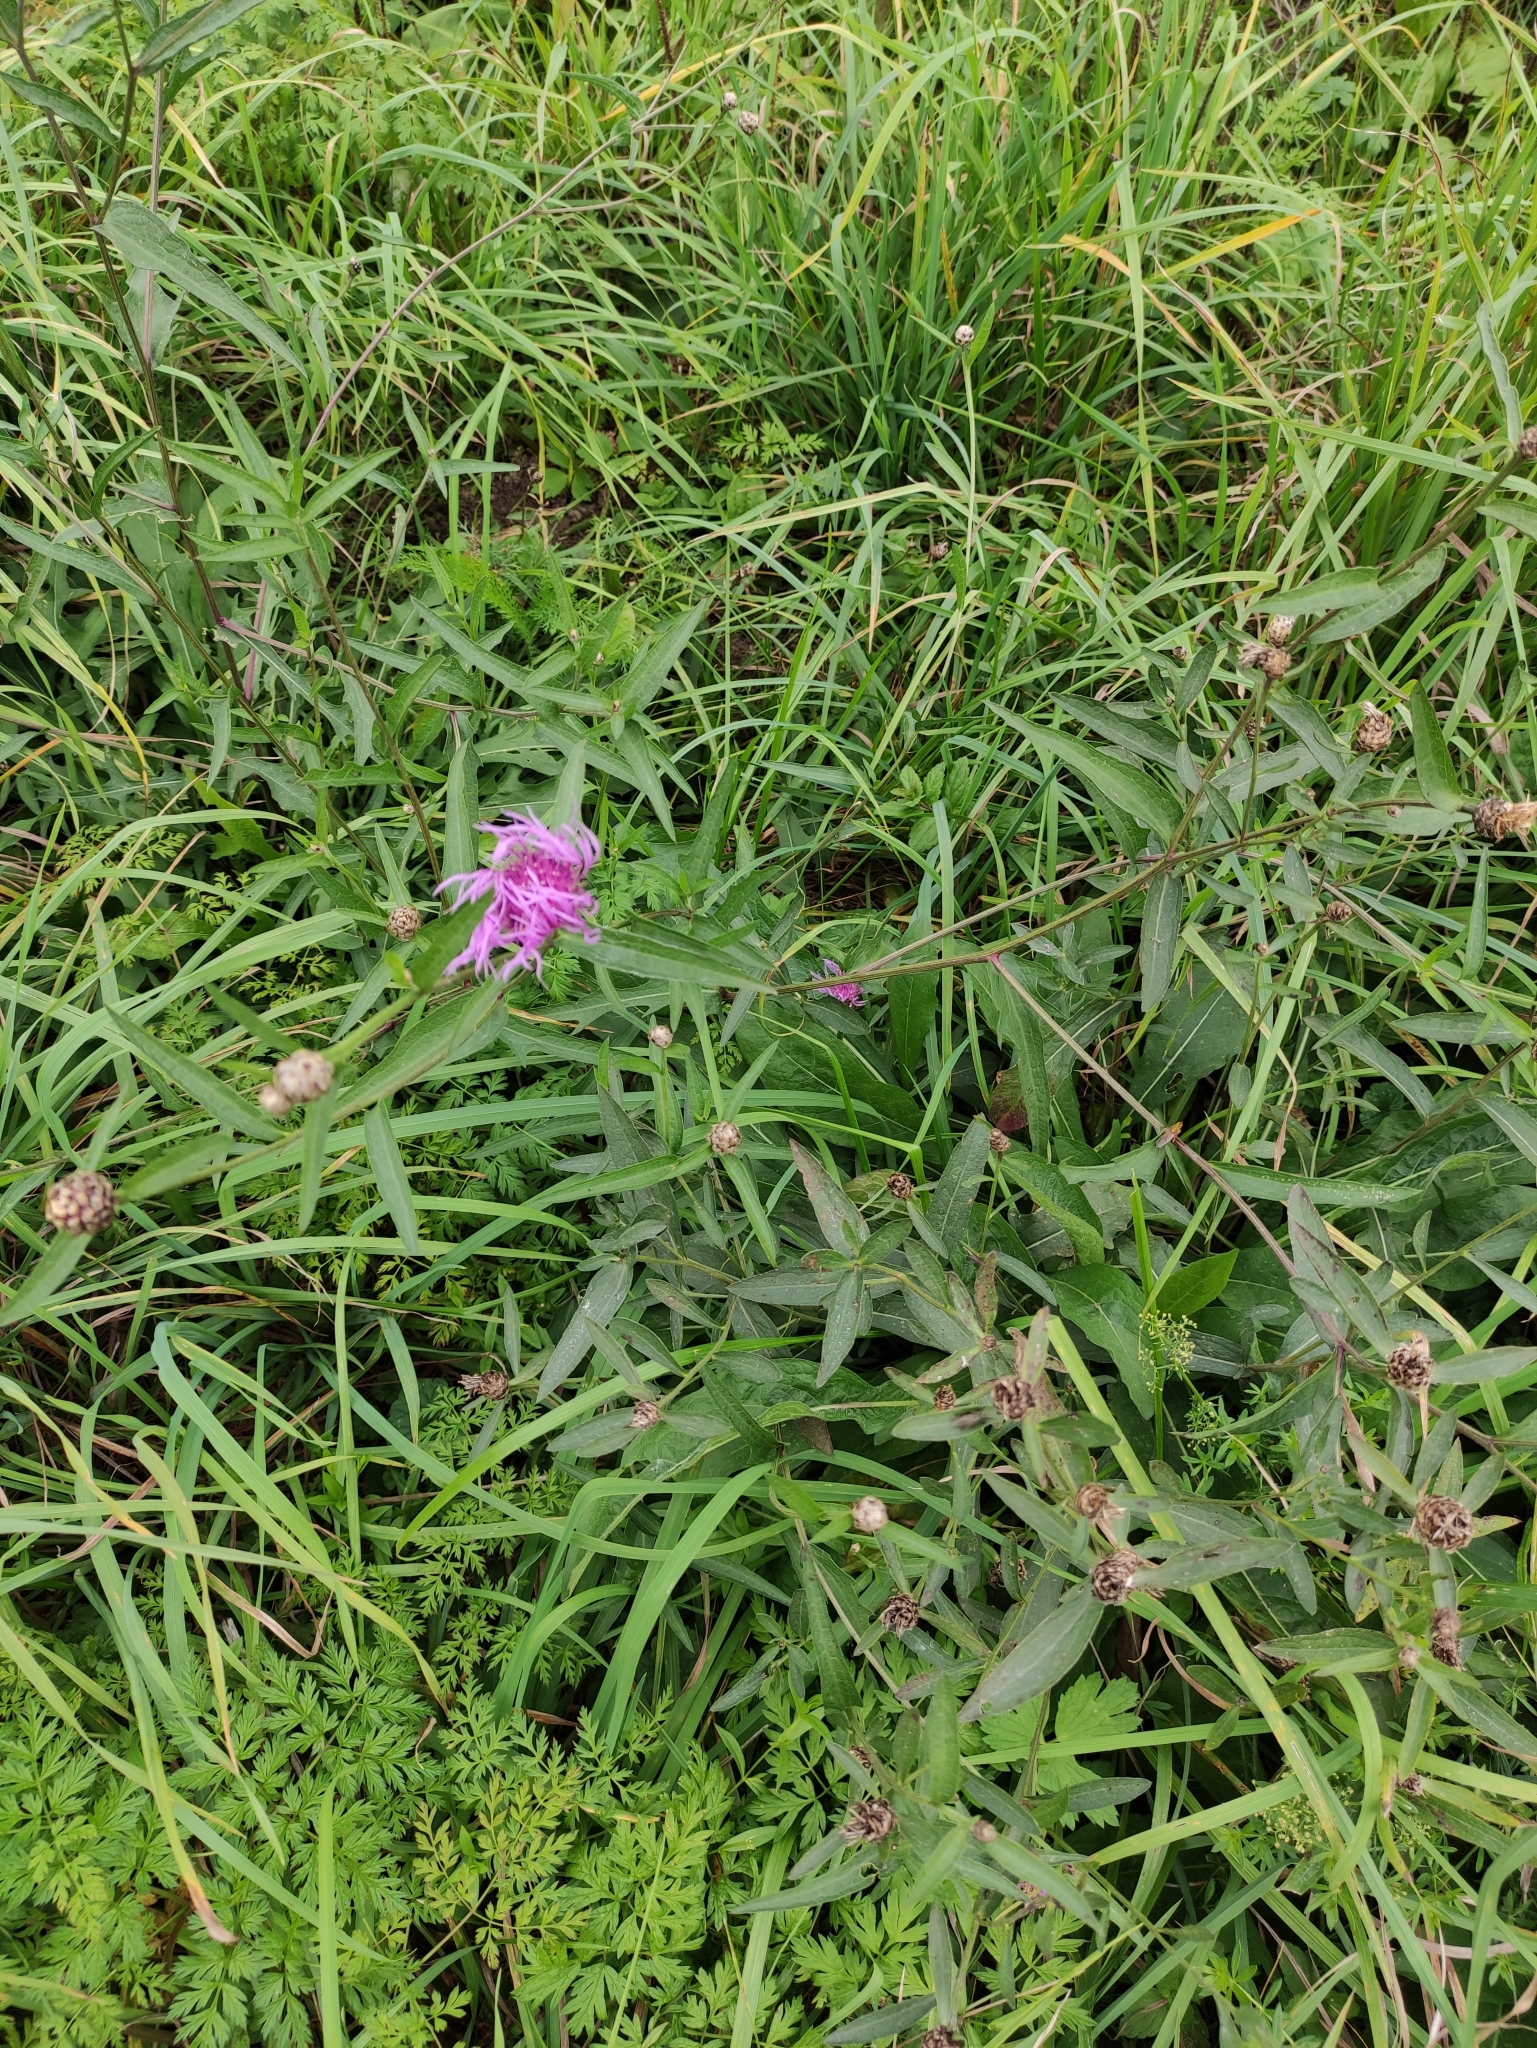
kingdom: Plantae
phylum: Tracheophyta
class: Magnoliopsida
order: Asterales
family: Asteraceae
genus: Centaurea
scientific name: Centaurea jacea
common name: Brown knapweed
